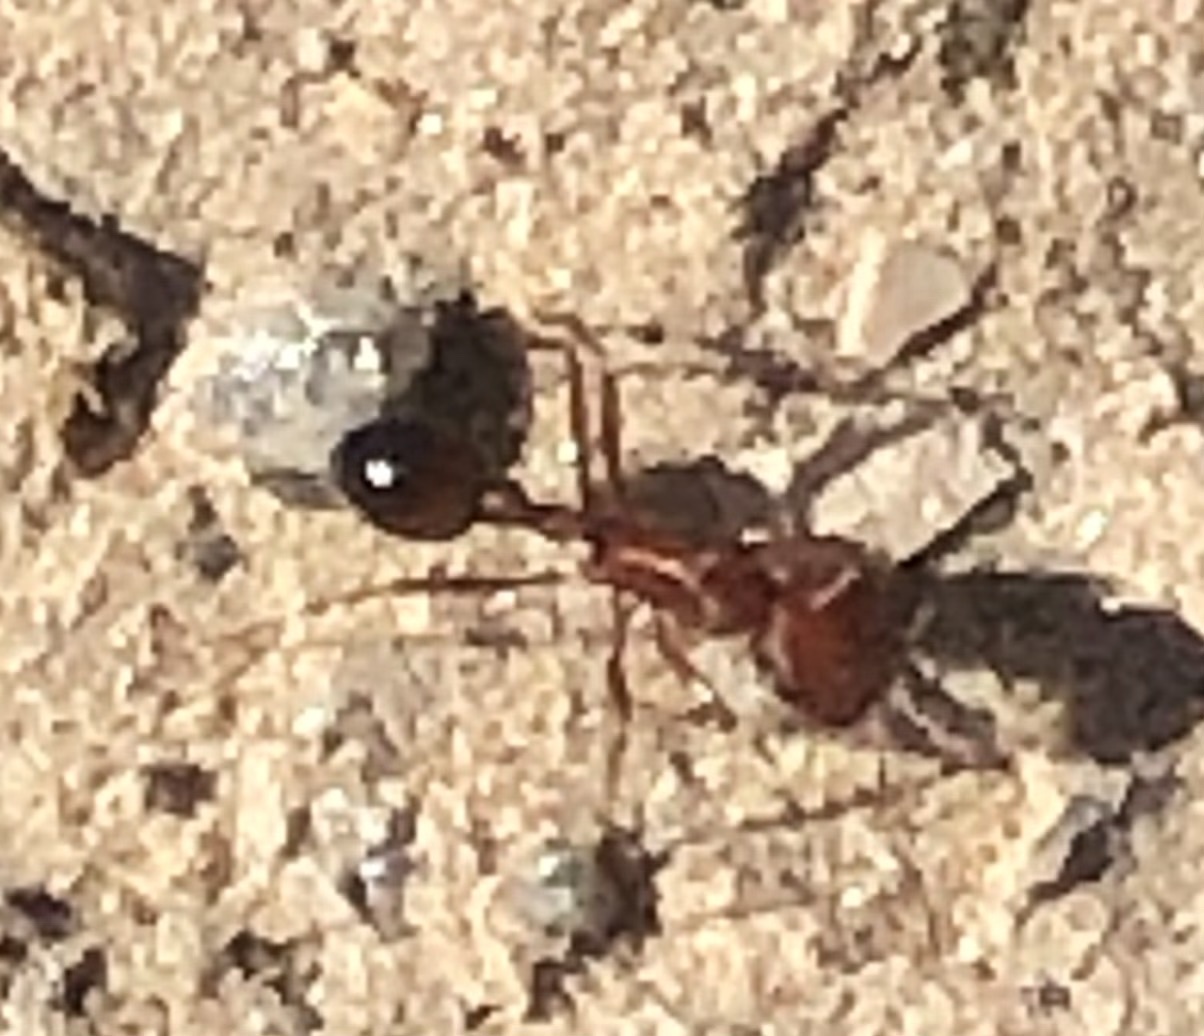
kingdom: Animalia
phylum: Arthropoda
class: Insecta
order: Hymenoptera
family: Formicidae
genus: Pogonomyrmex
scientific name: Pogonomyrmex californicus
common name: California harvester ant
